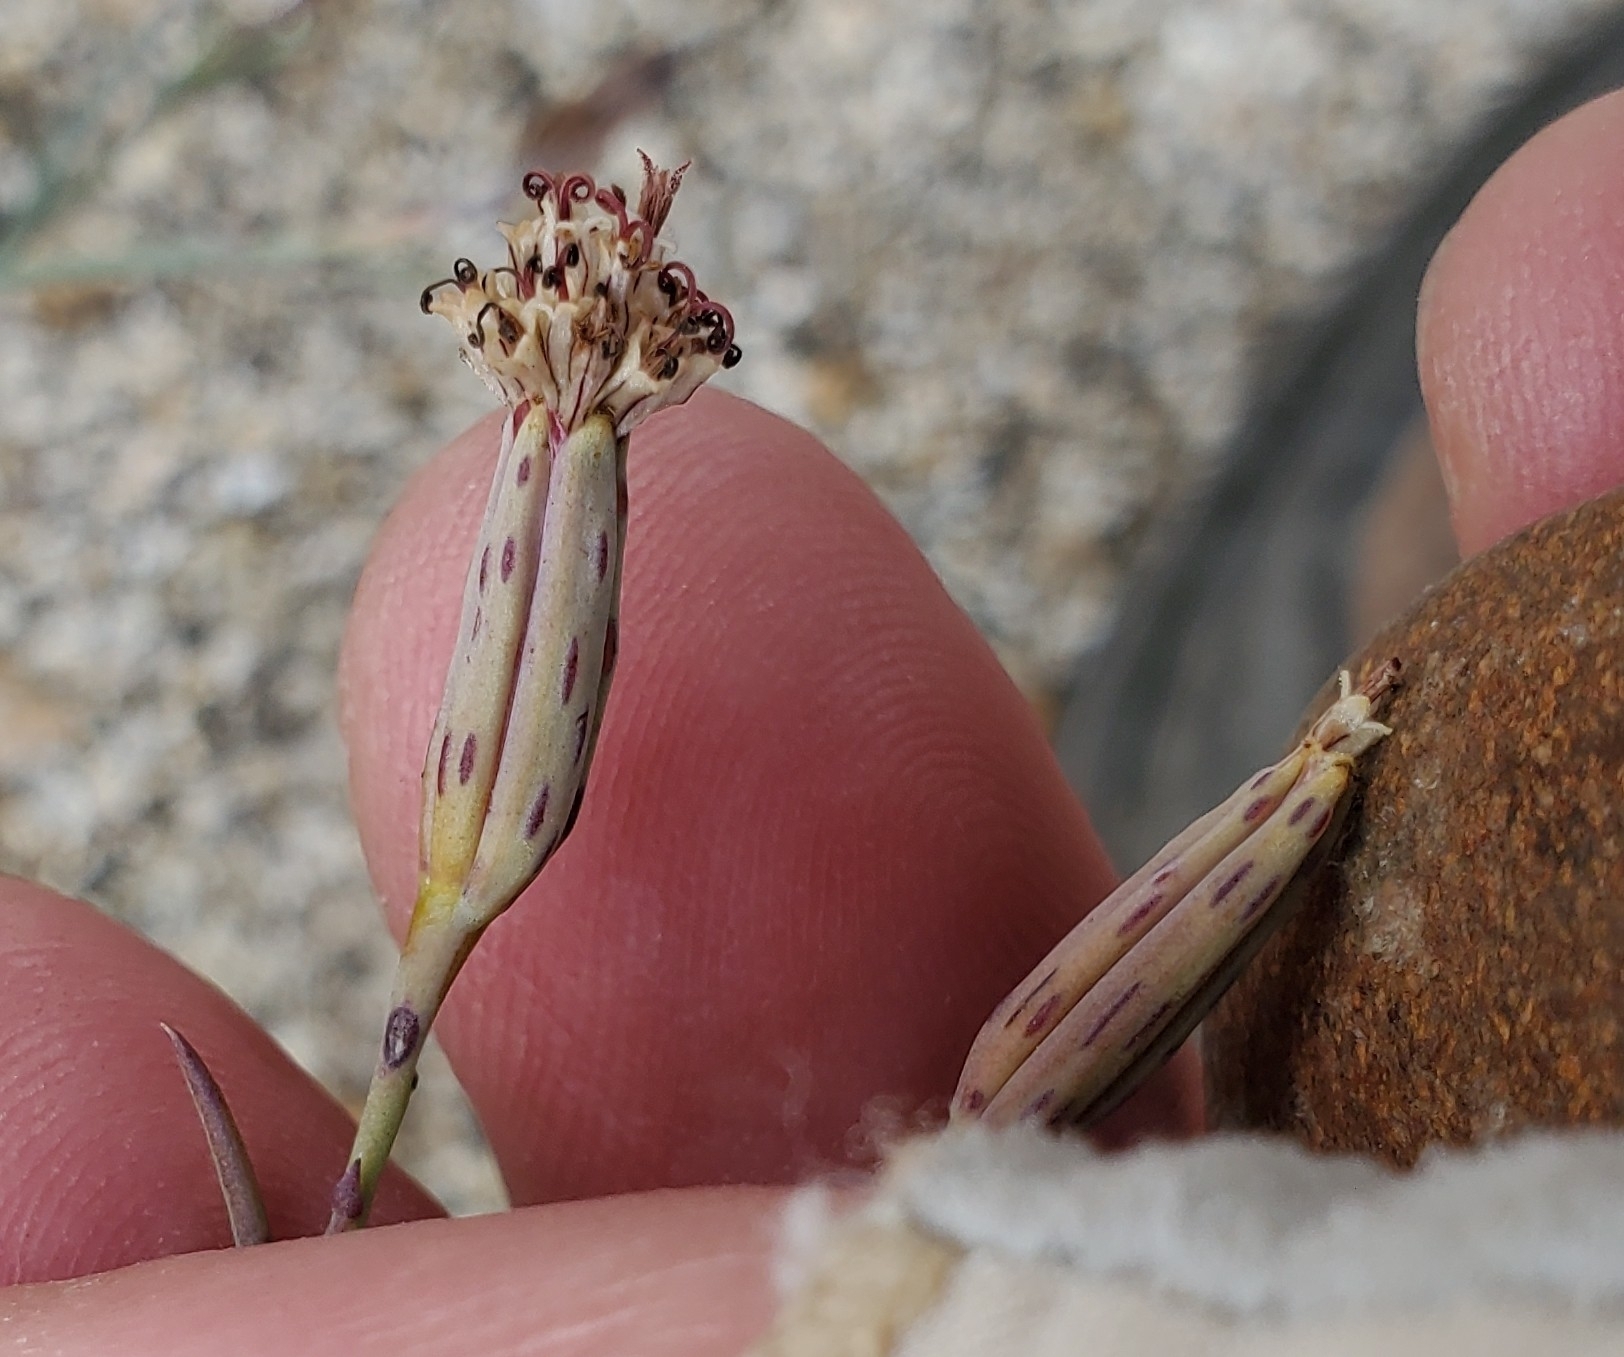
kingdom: Plantae
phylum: Tracheophyta
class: Magnoliopsida
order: Asterales
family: Asteraceae
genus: Porophyllum
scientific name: Porophyllum gracile
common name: Odora
